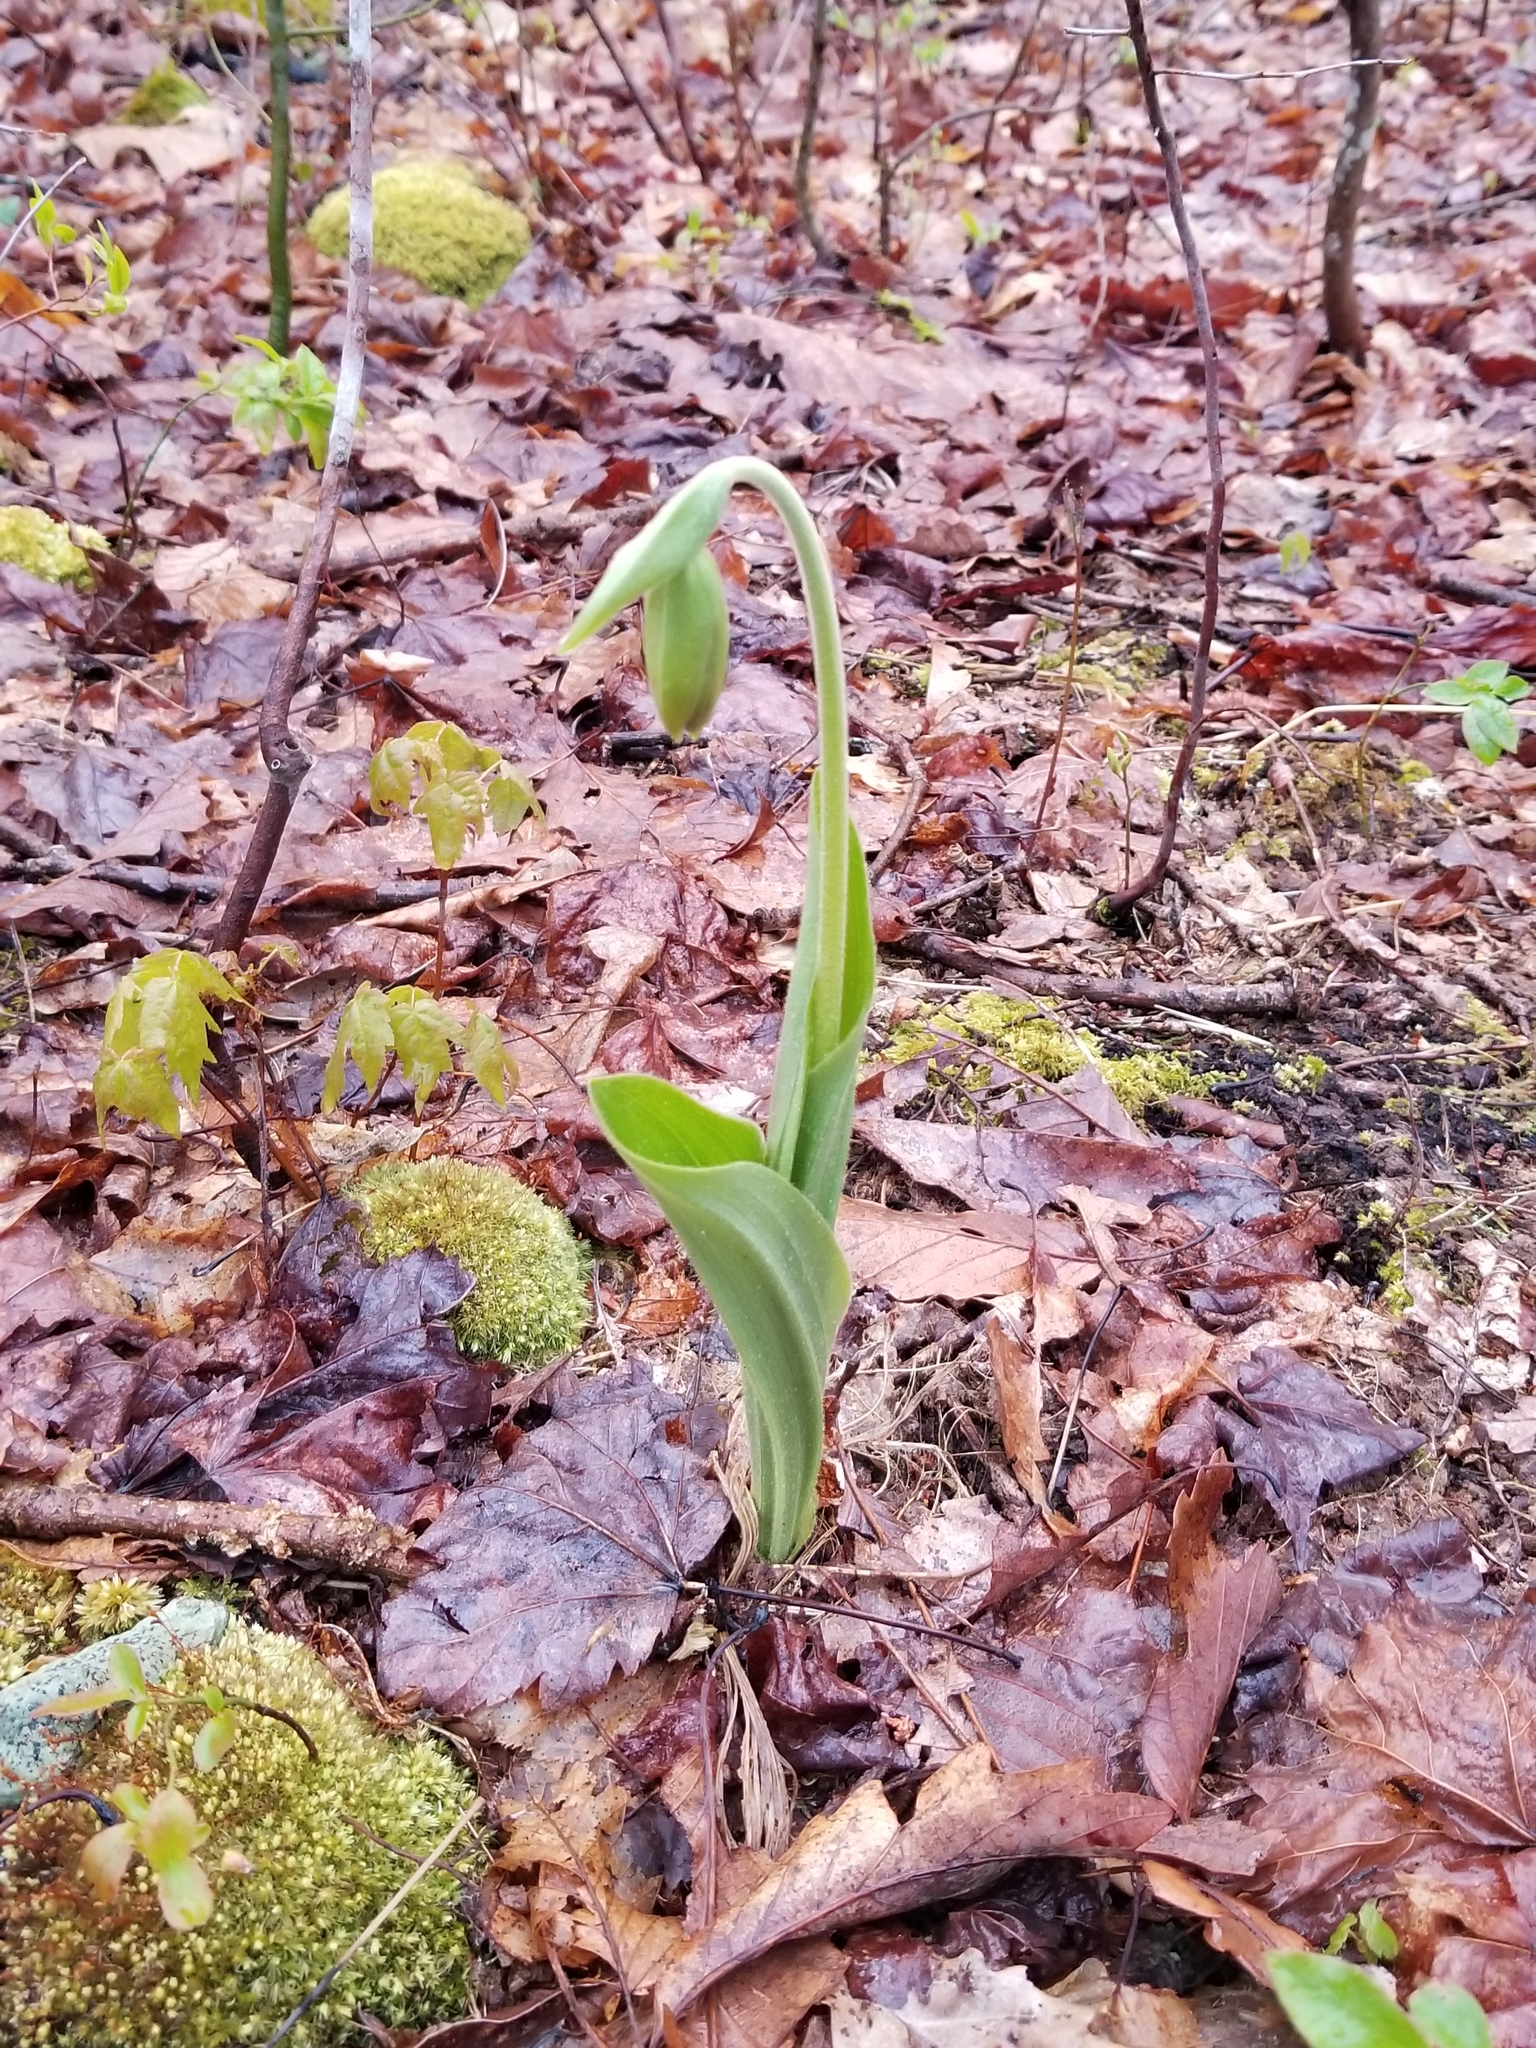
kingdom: Plantae
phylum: Tracheophyta
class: Liliopsida
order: Asparagales
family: Orchidaceae
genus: Cypripedium
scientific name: Cypripedium acaule
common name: Pink lady's-slipper
